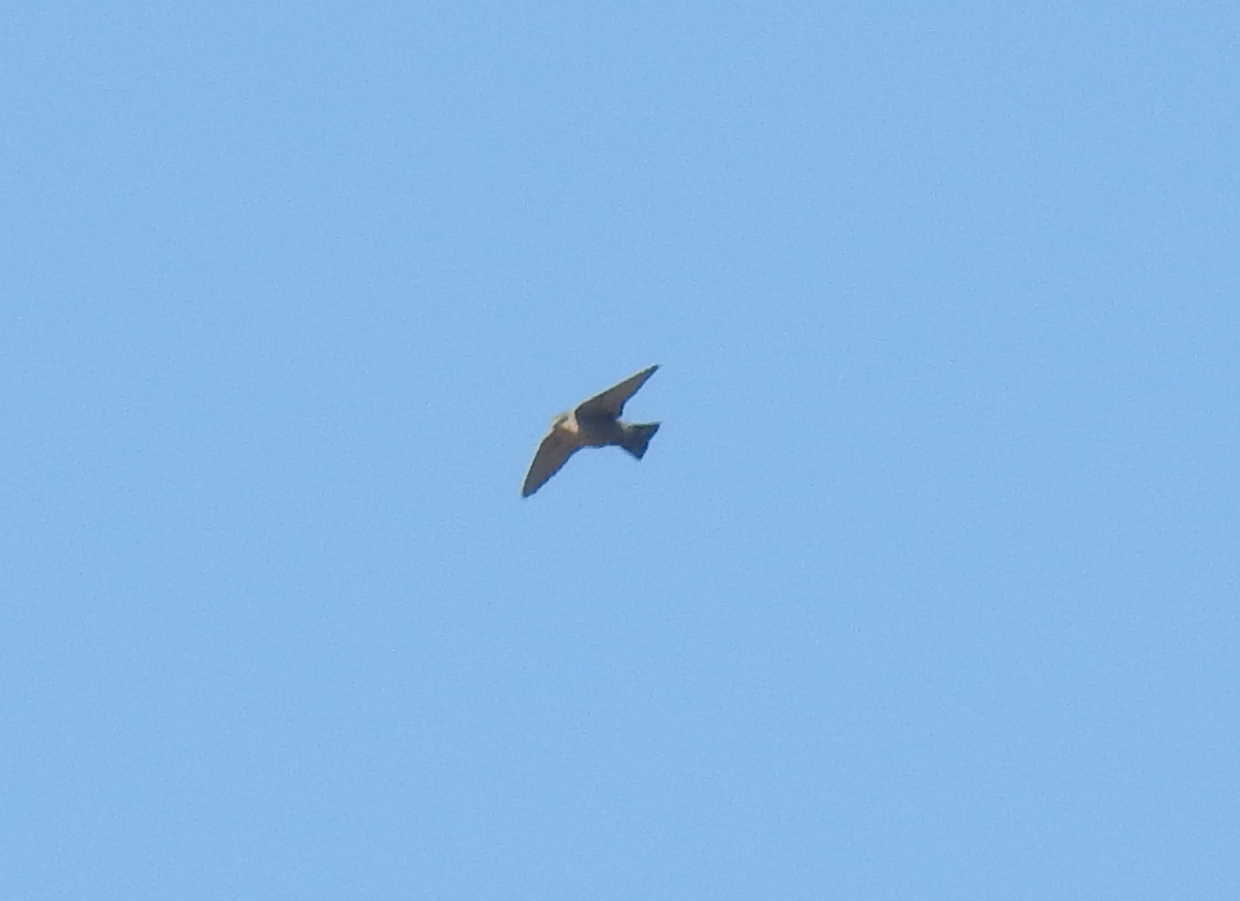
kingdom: Animalia
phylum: Chordata
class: Aves
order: Passeriformes
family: Hirundinidae
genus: Riparia
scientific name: Riparia paludicola
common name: Brown-throated martin
